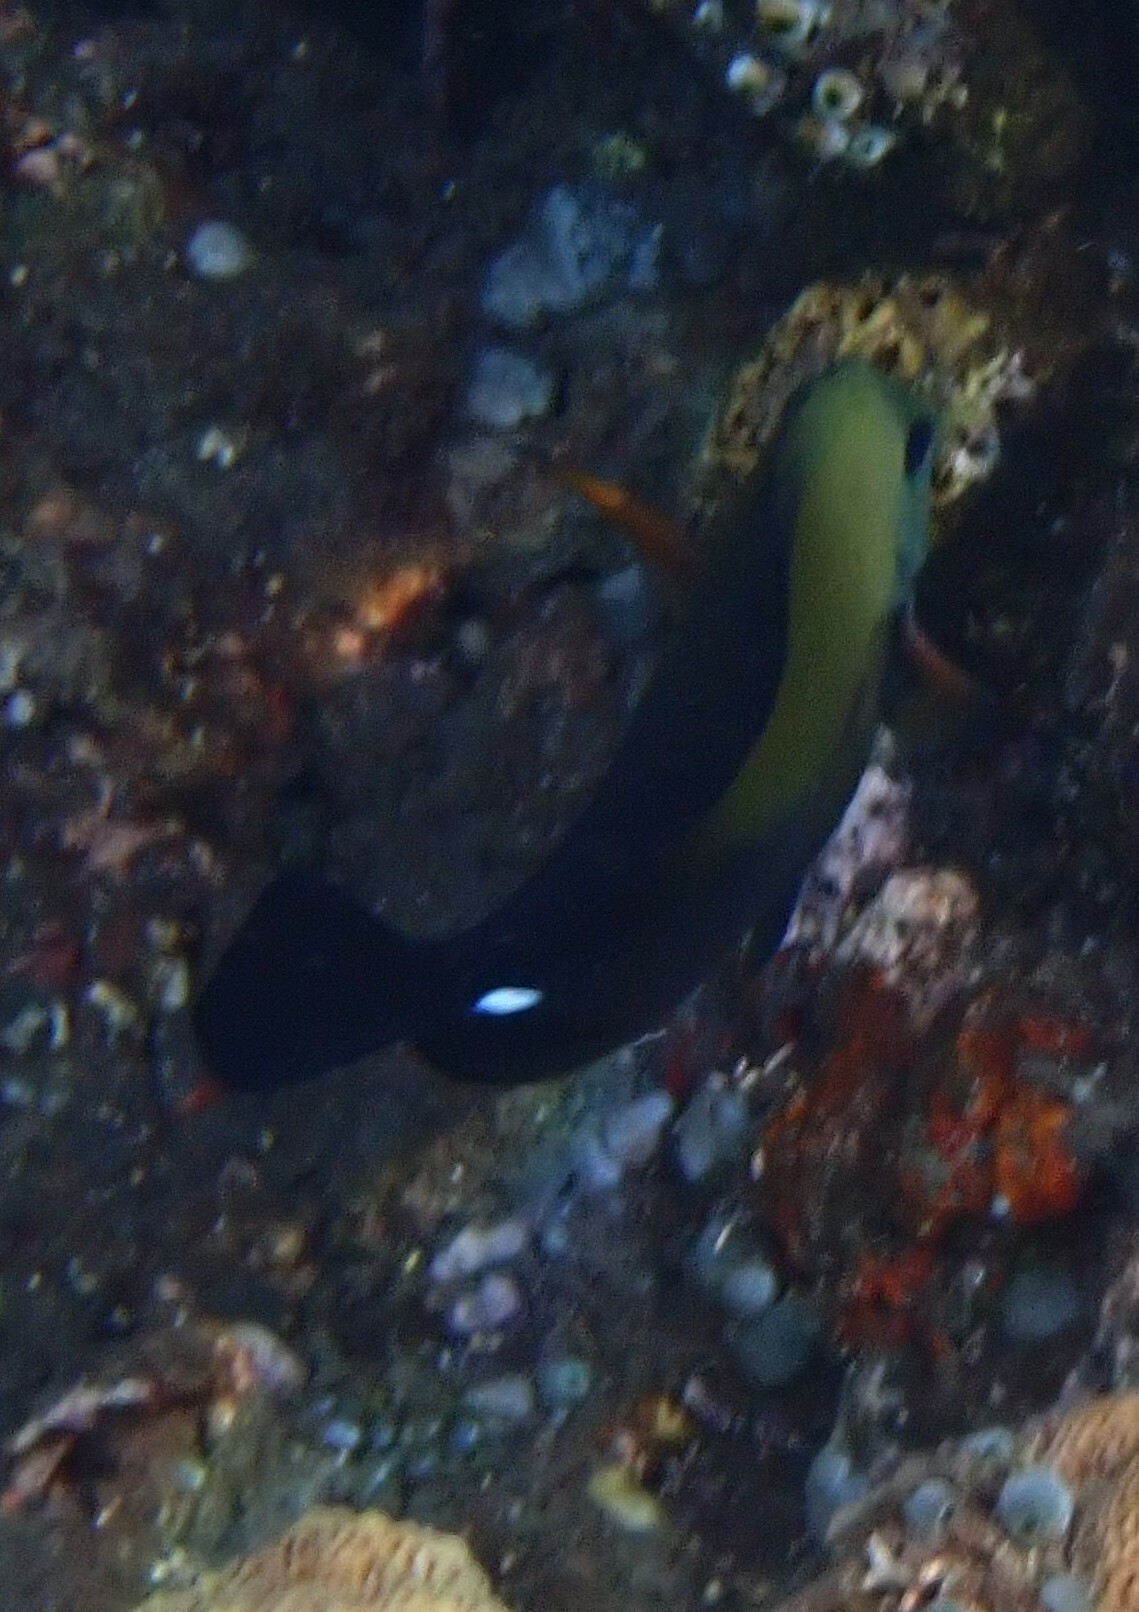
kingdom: Animalia
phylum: Chordata
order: Perciformes
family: Acanthuridae
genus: Zebrasoma
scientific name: Zebrasoma scopas
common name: Twotone tang
